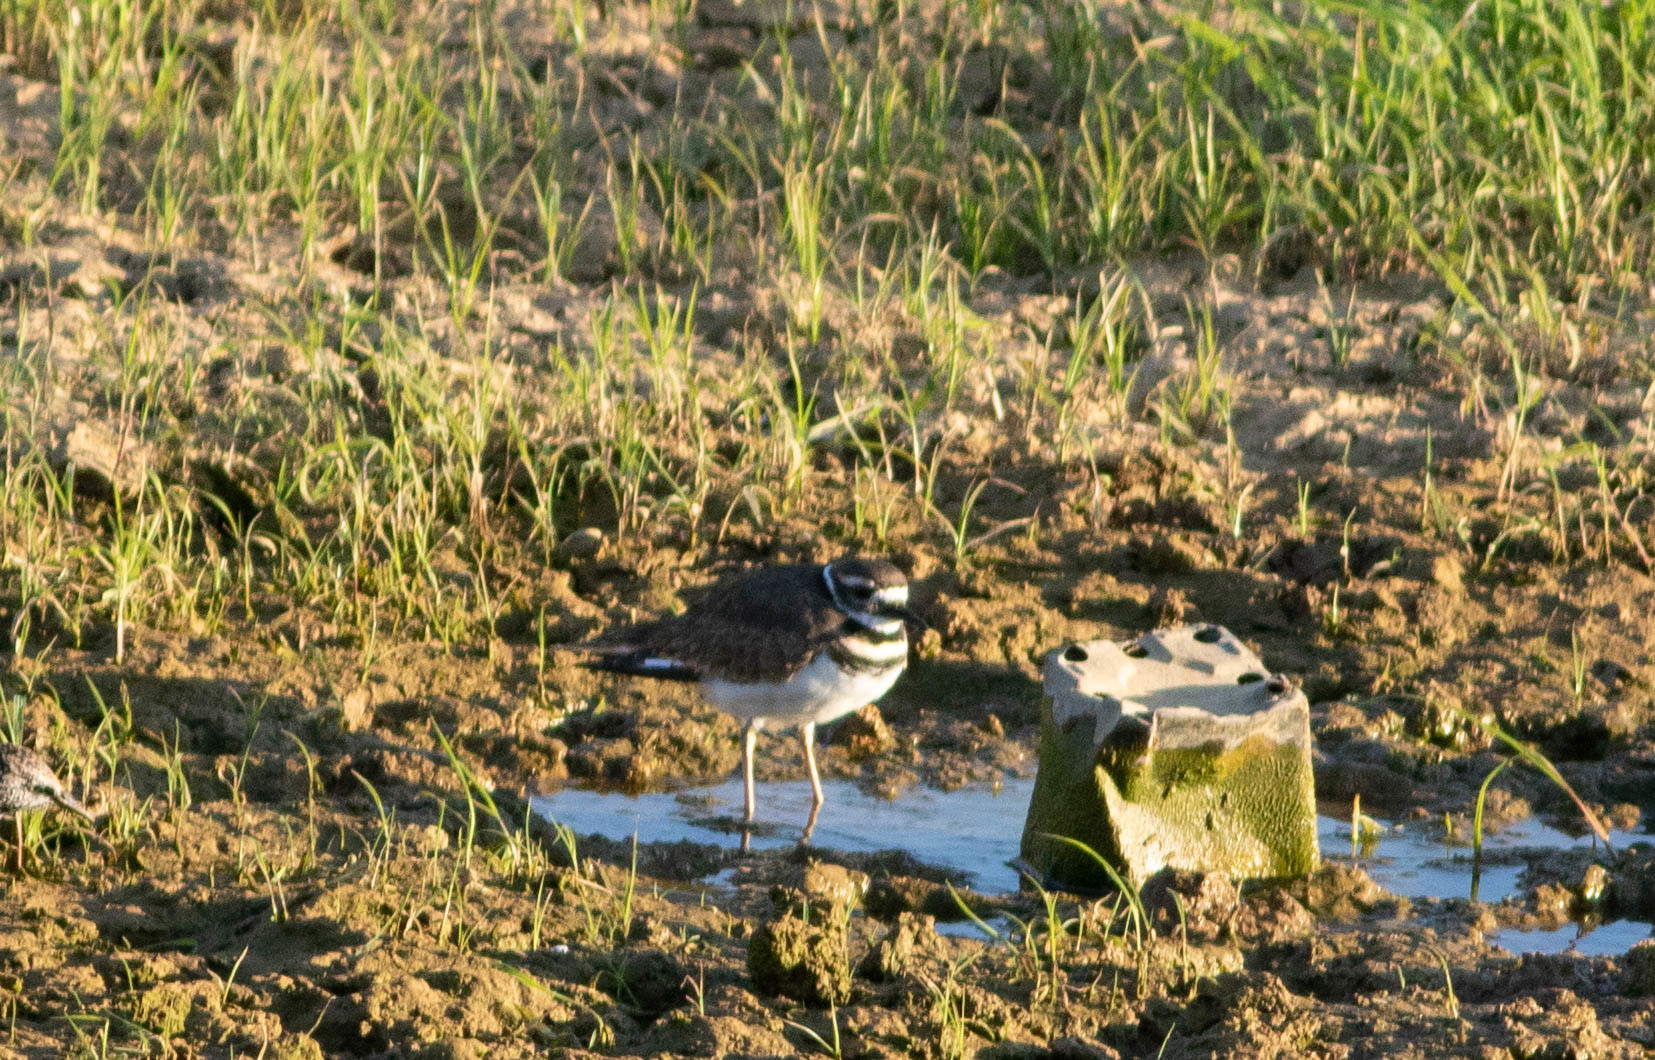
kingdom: Animalia
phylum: Chordata
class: Aves
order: Charadriiformes
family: Charadriidae
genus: Charadrius
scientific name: Charadrius vociferus
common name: Killdeer
